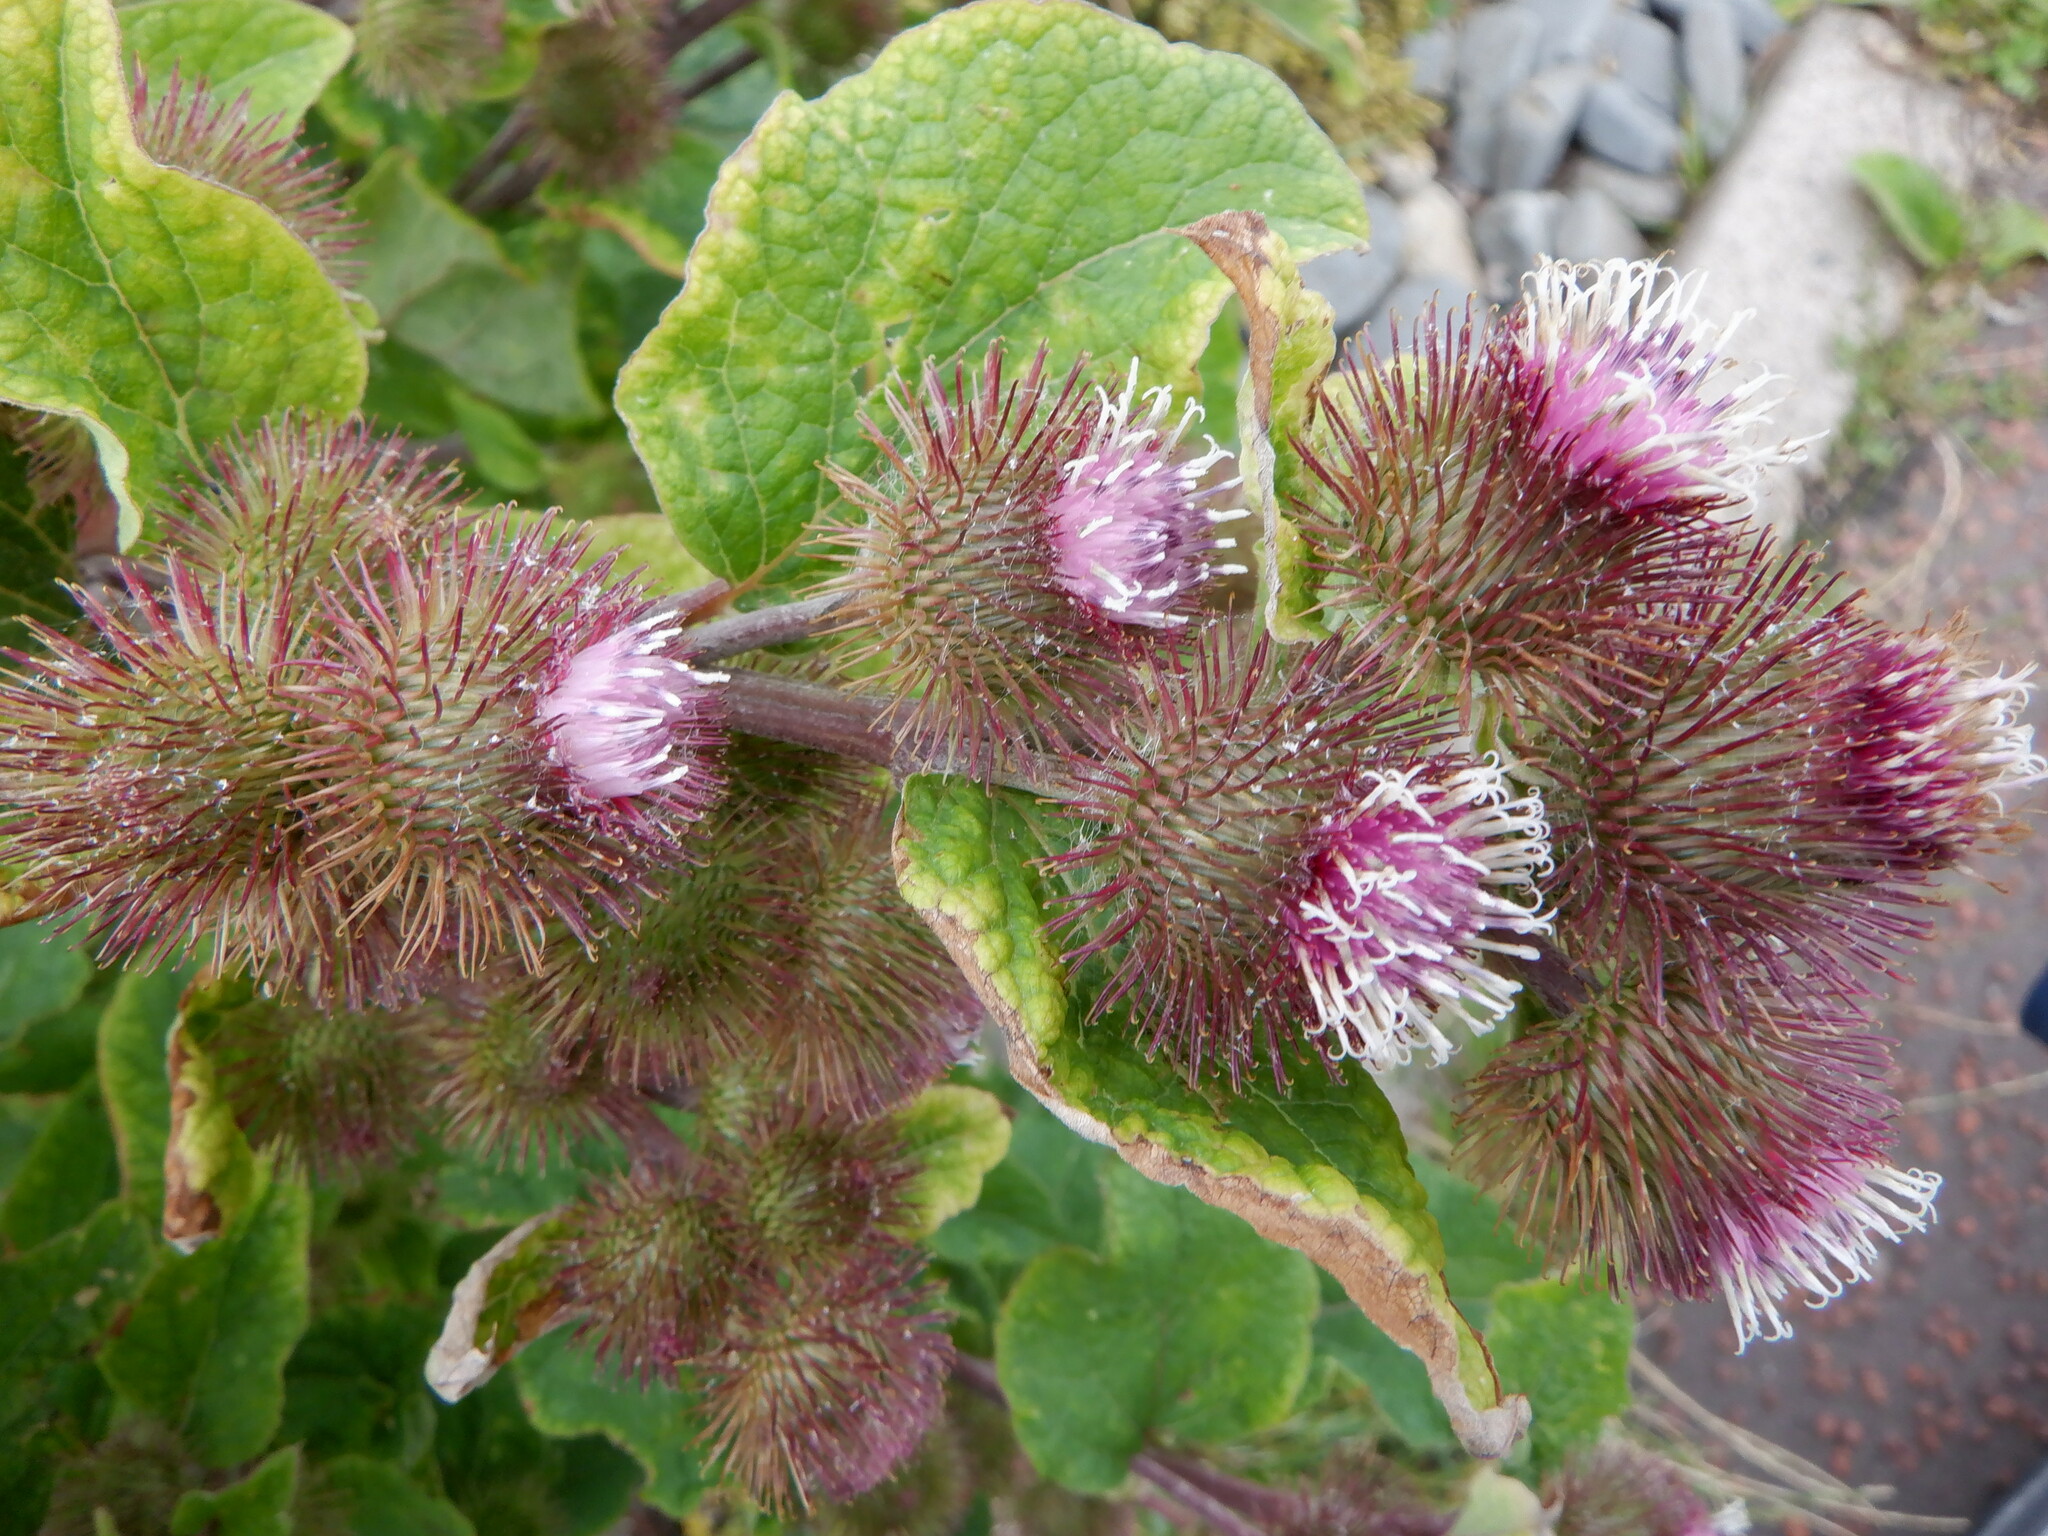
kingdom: Plantae
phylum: Tracheophyta
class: Magnoliopsida
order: Asterales
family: Asteraceae
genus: Arctium
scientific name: Arctium minus
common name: Lesser burdock
